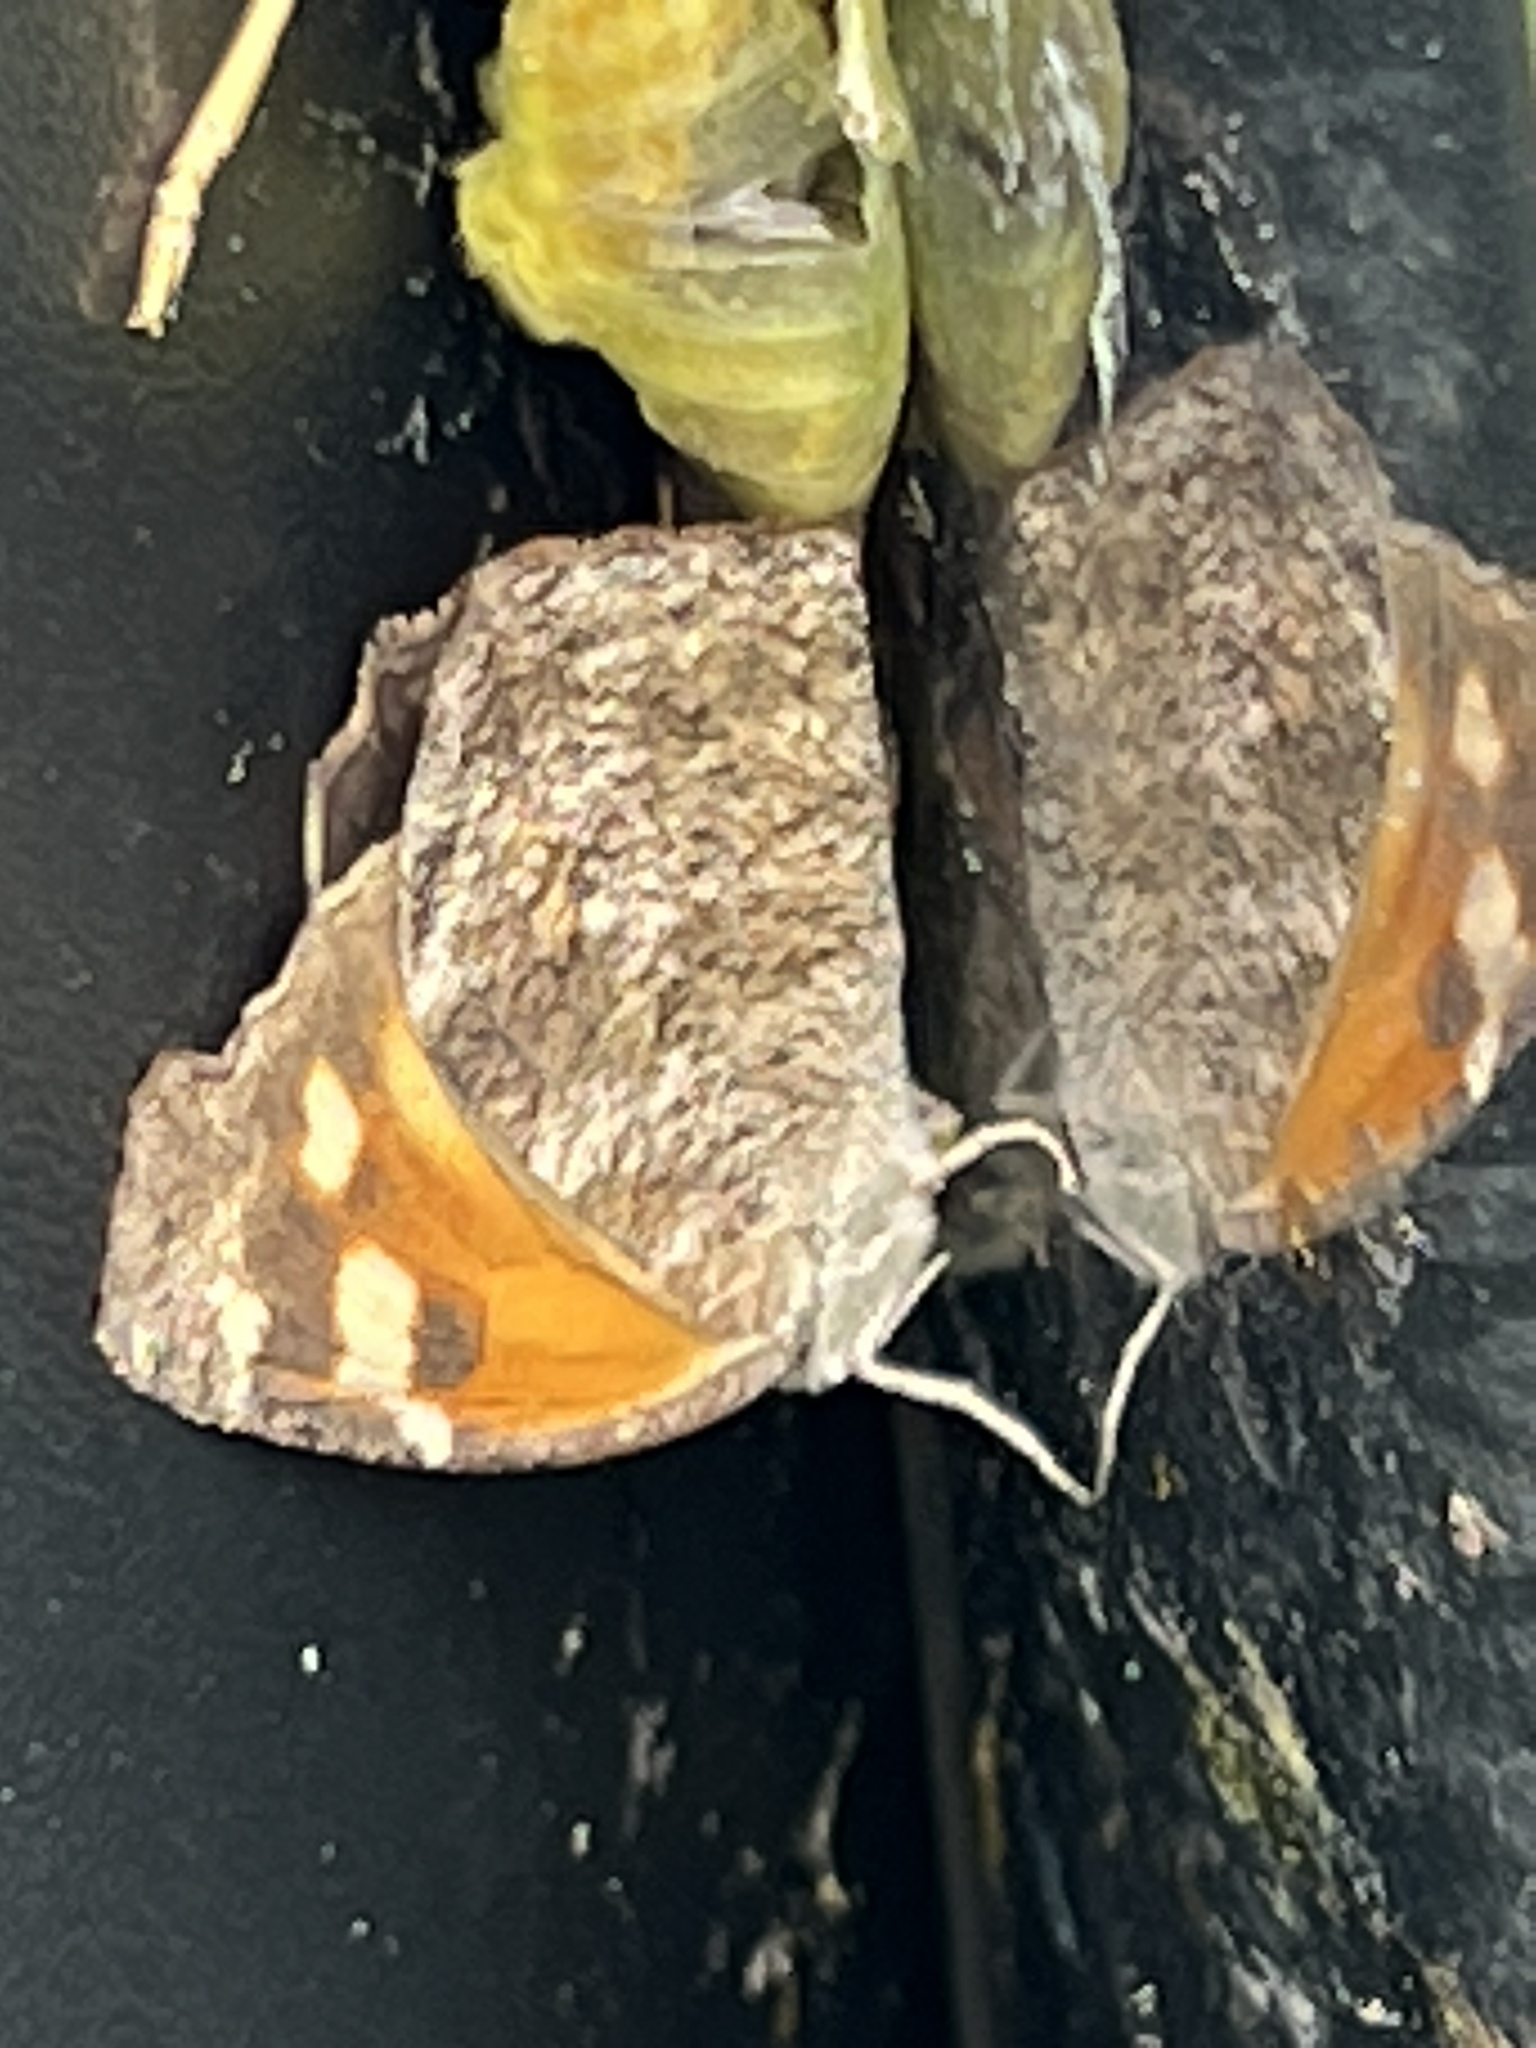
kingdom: Animalia
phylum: Arthropoda
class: Insecta
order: Lepidoptera
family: Nymphalidae
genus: Libytheana
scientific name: Libytheana carinenta
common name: American snout
